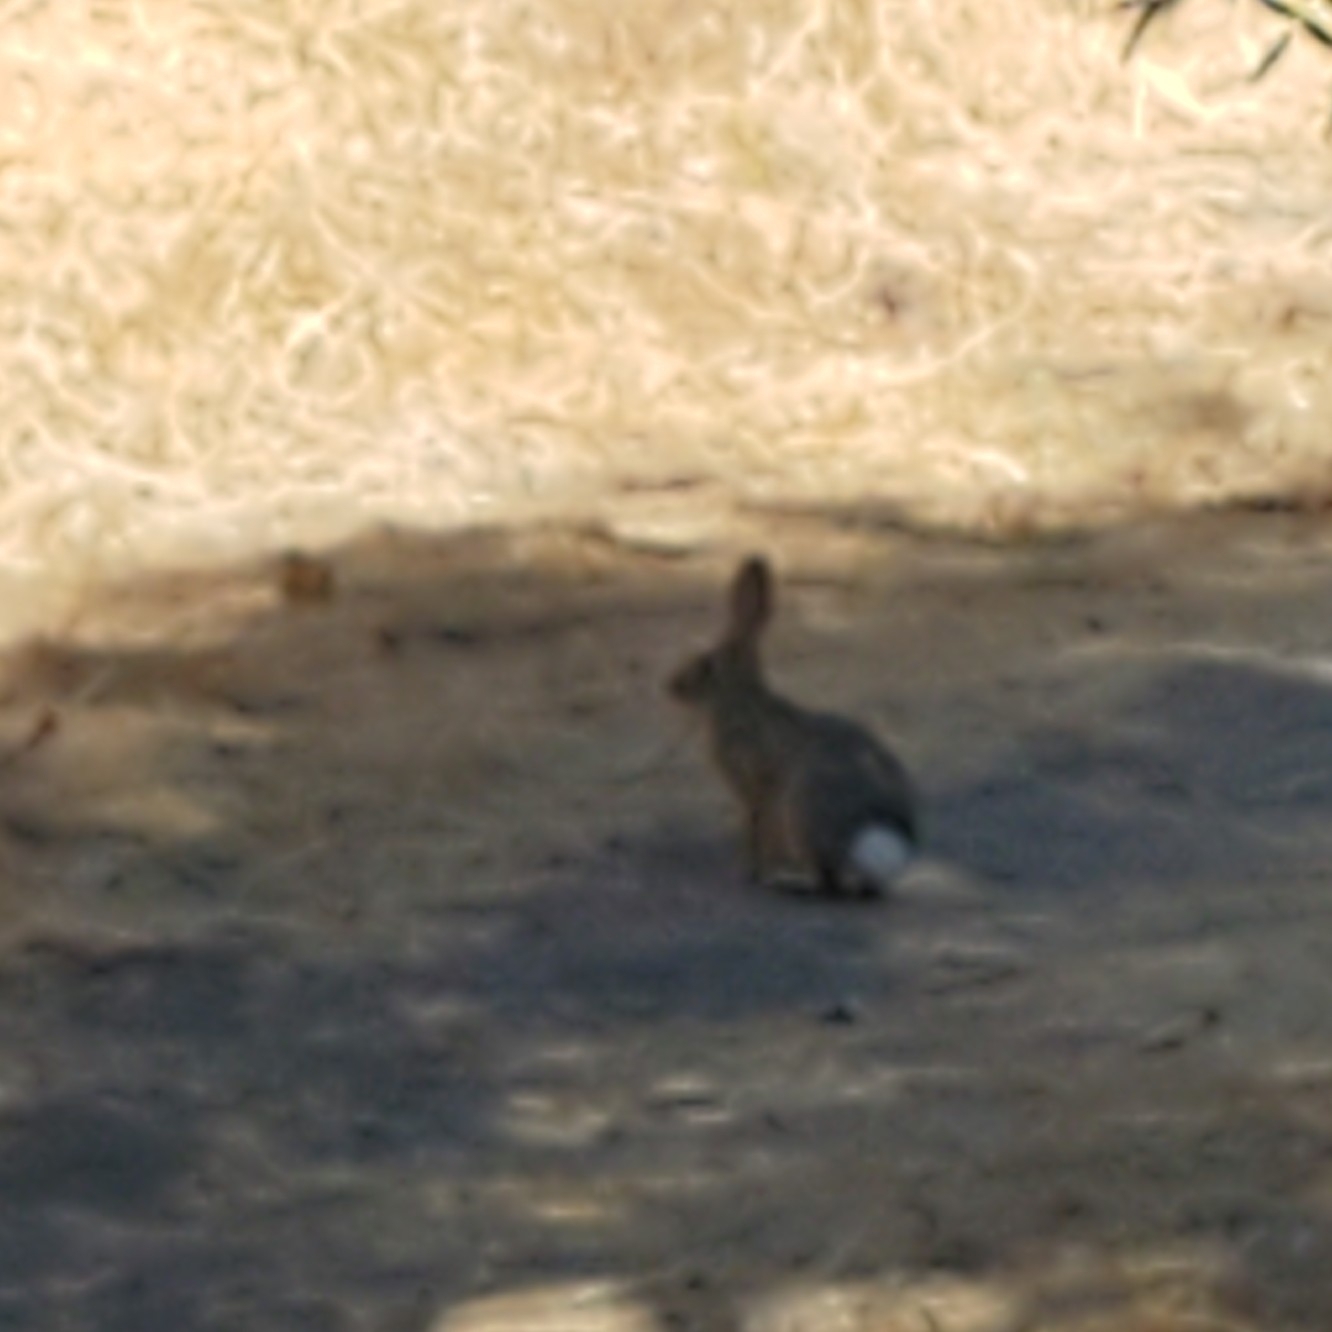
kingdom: Animalia
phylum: Chordata
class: Mammalia
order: Lagomorpha
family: Leporidae
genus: Sylvilagus
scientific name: Sylvilagus audubonii
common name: Desert cottontail
